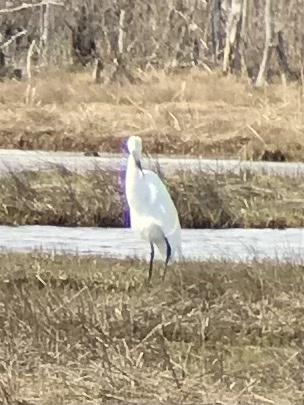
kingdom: Animalia
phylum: Chordata
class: Aves
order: Pelecaniformes
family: Ardeidae
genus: Ardea
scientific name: Ardea alba
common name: Great egret
